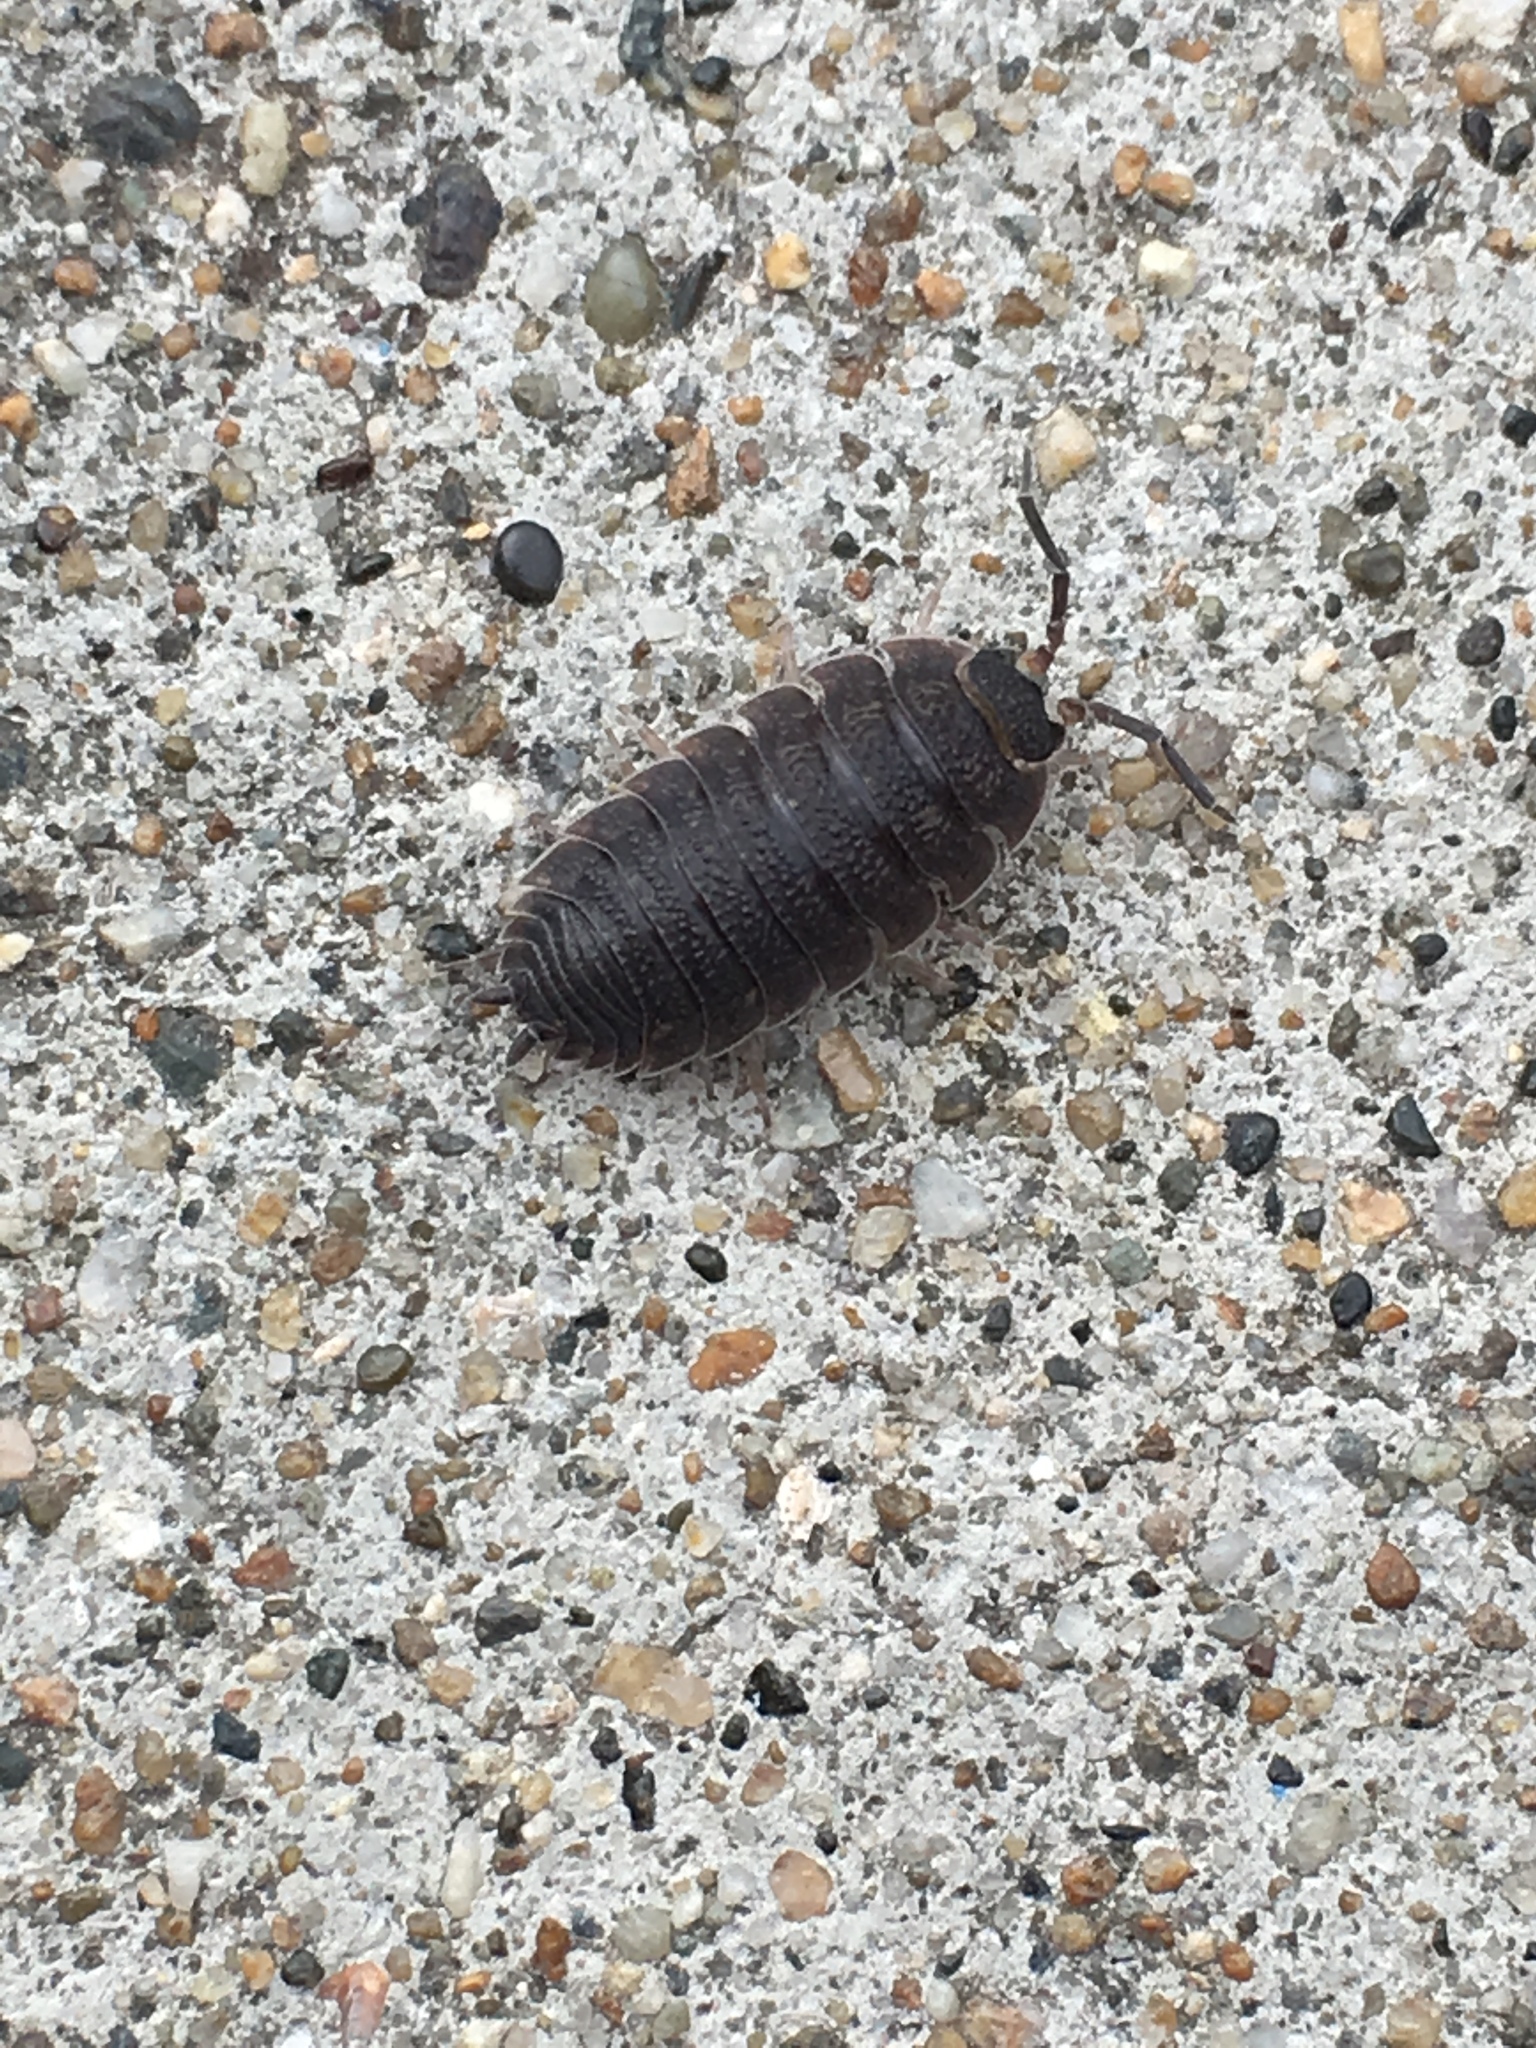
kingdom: Animalia
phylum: Arthropoda
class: Malacostraca
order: Isopoda
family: Porcellionidae
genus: Porcellio
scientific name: Porcellio scaber
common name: Common rough woodlouse
